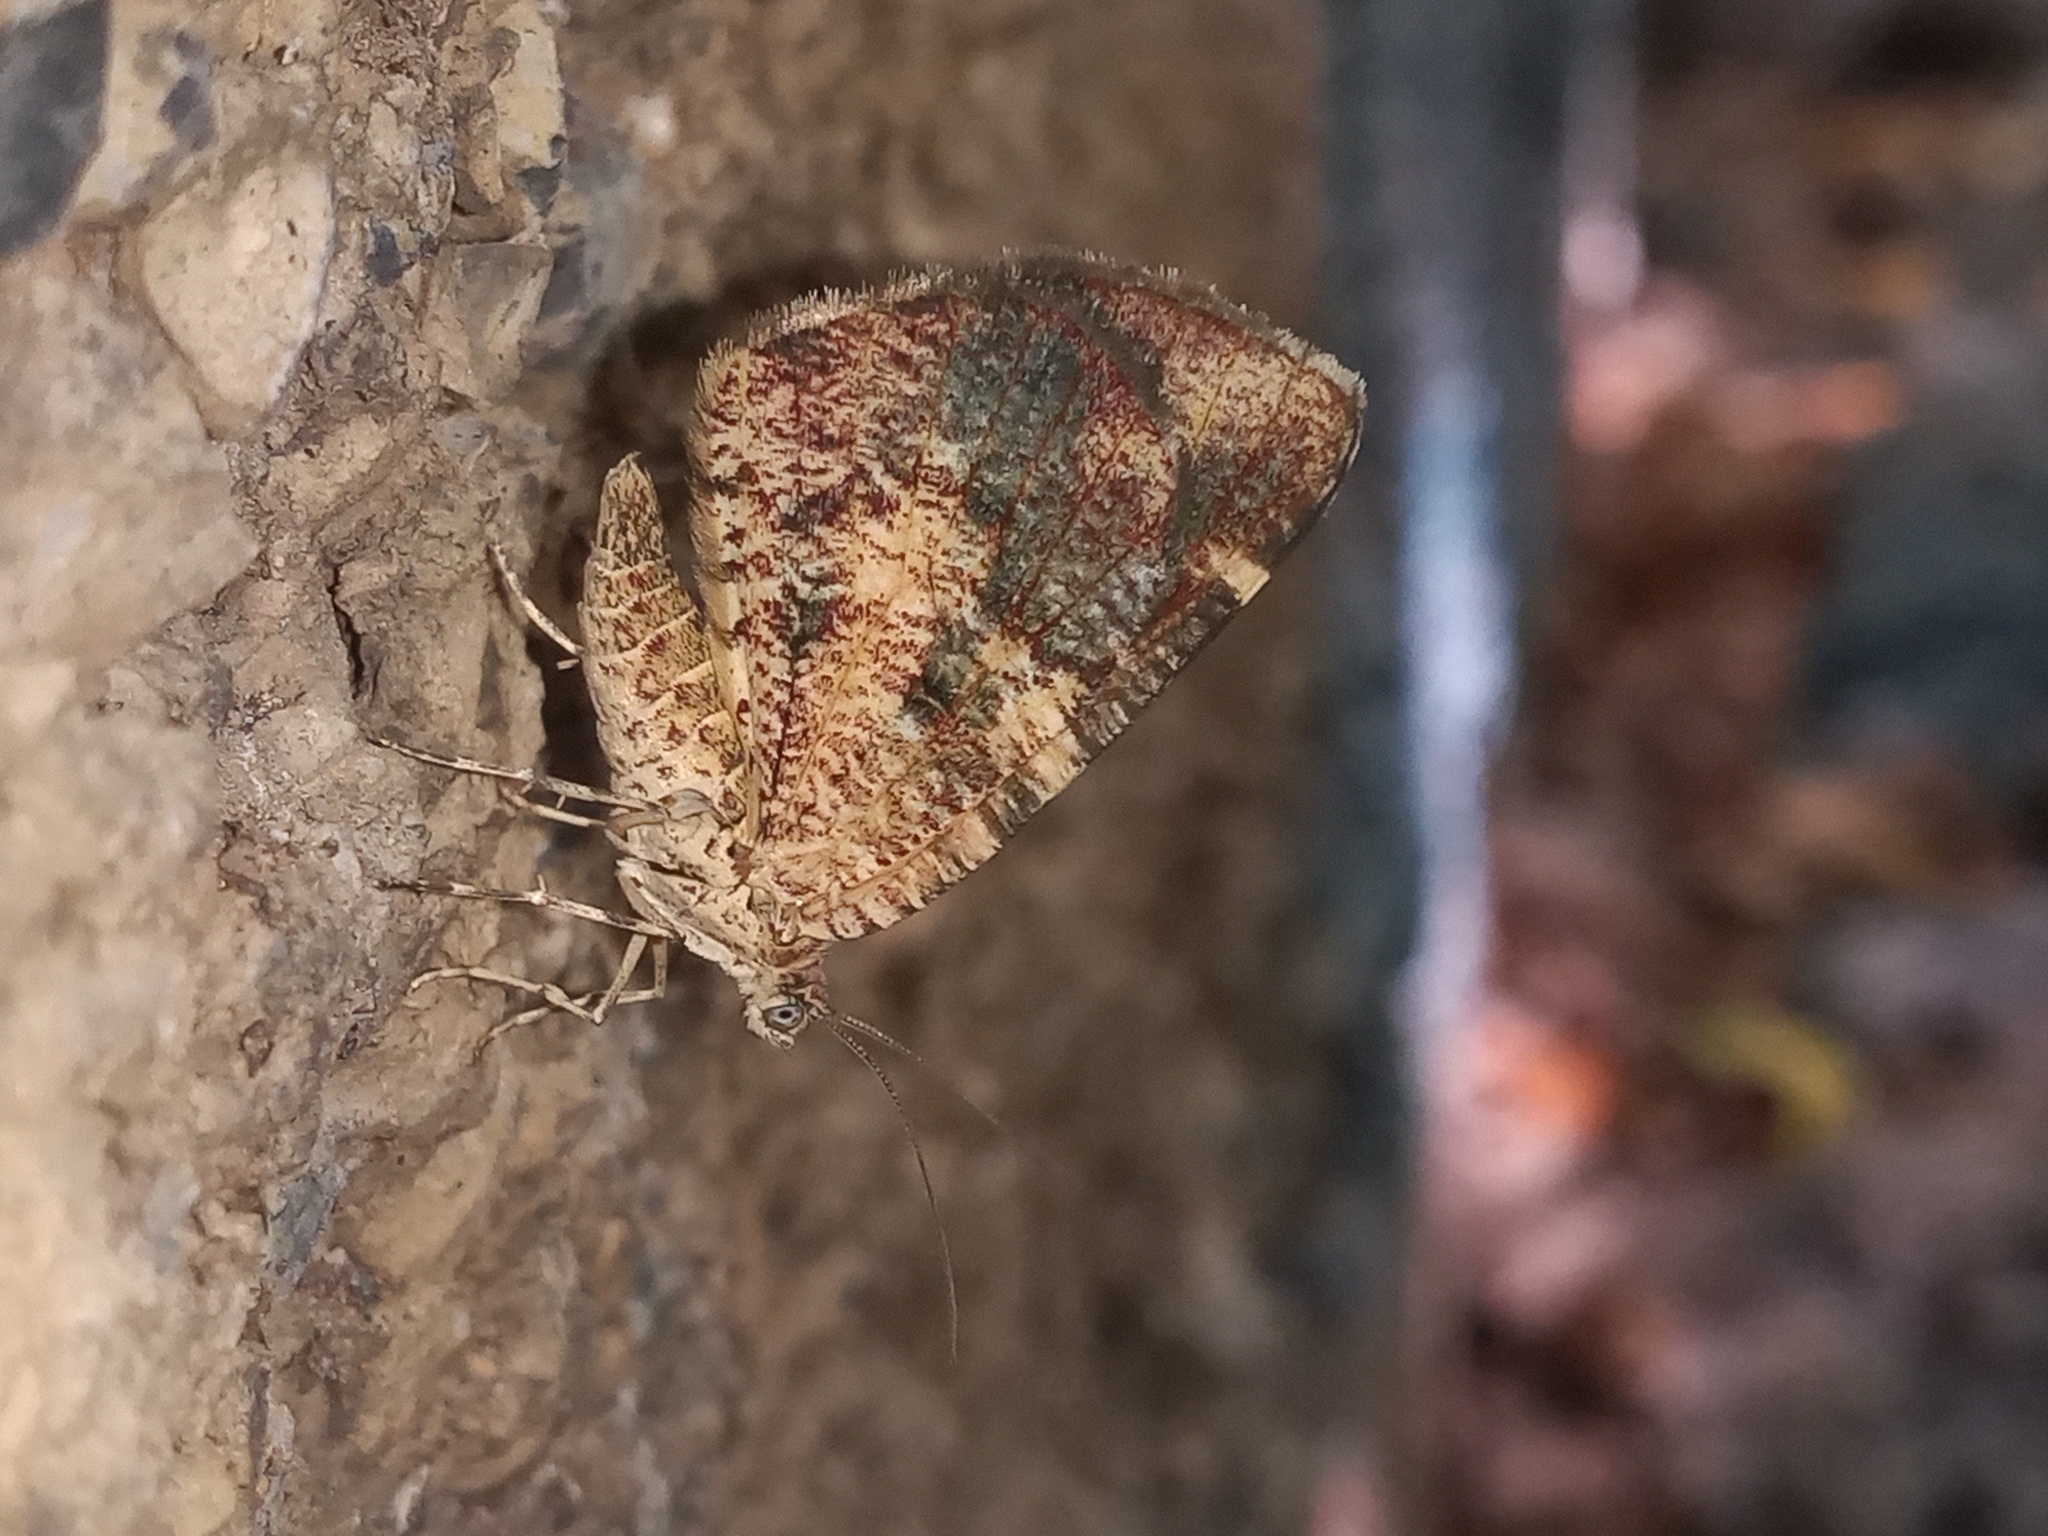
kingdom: Animalia
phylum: Arthropoda
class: Insecta
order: Lepidoptera
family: Geometridae
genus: Heterusia
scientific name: Heterusia atalantata
